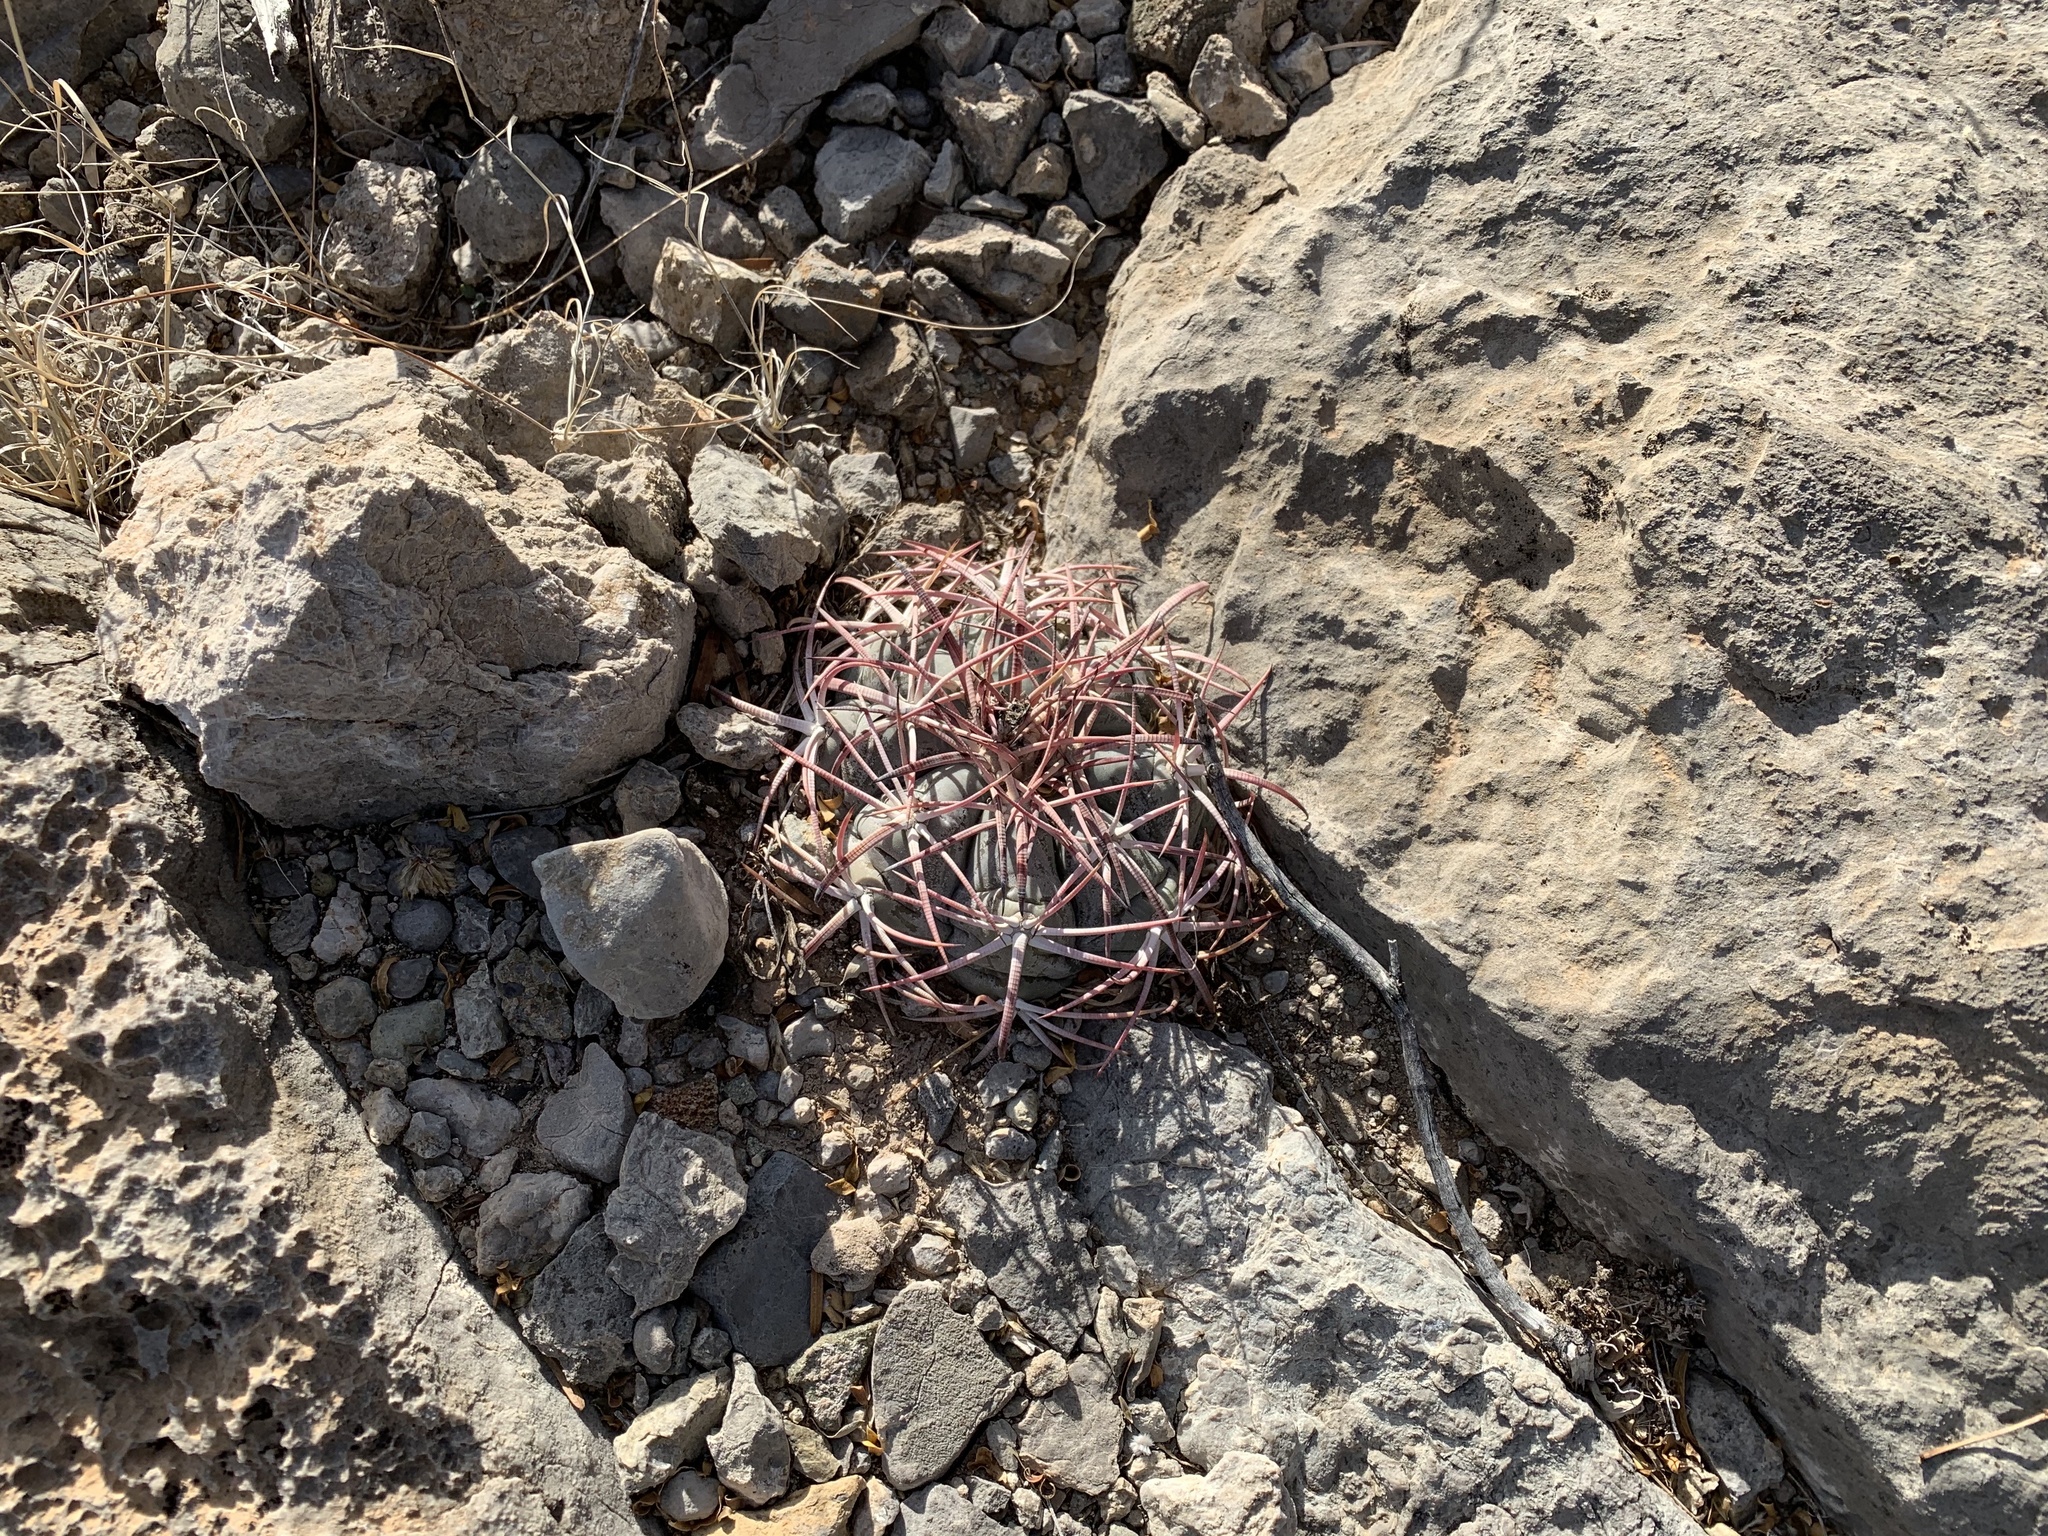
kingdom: Plantae
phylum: Tracheophyta
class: Magnoliopsida
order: Caryophyllales
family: Cactaceae
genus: Echinocactus
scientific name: Echinocactus horizonthalonius
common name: Devilshead
